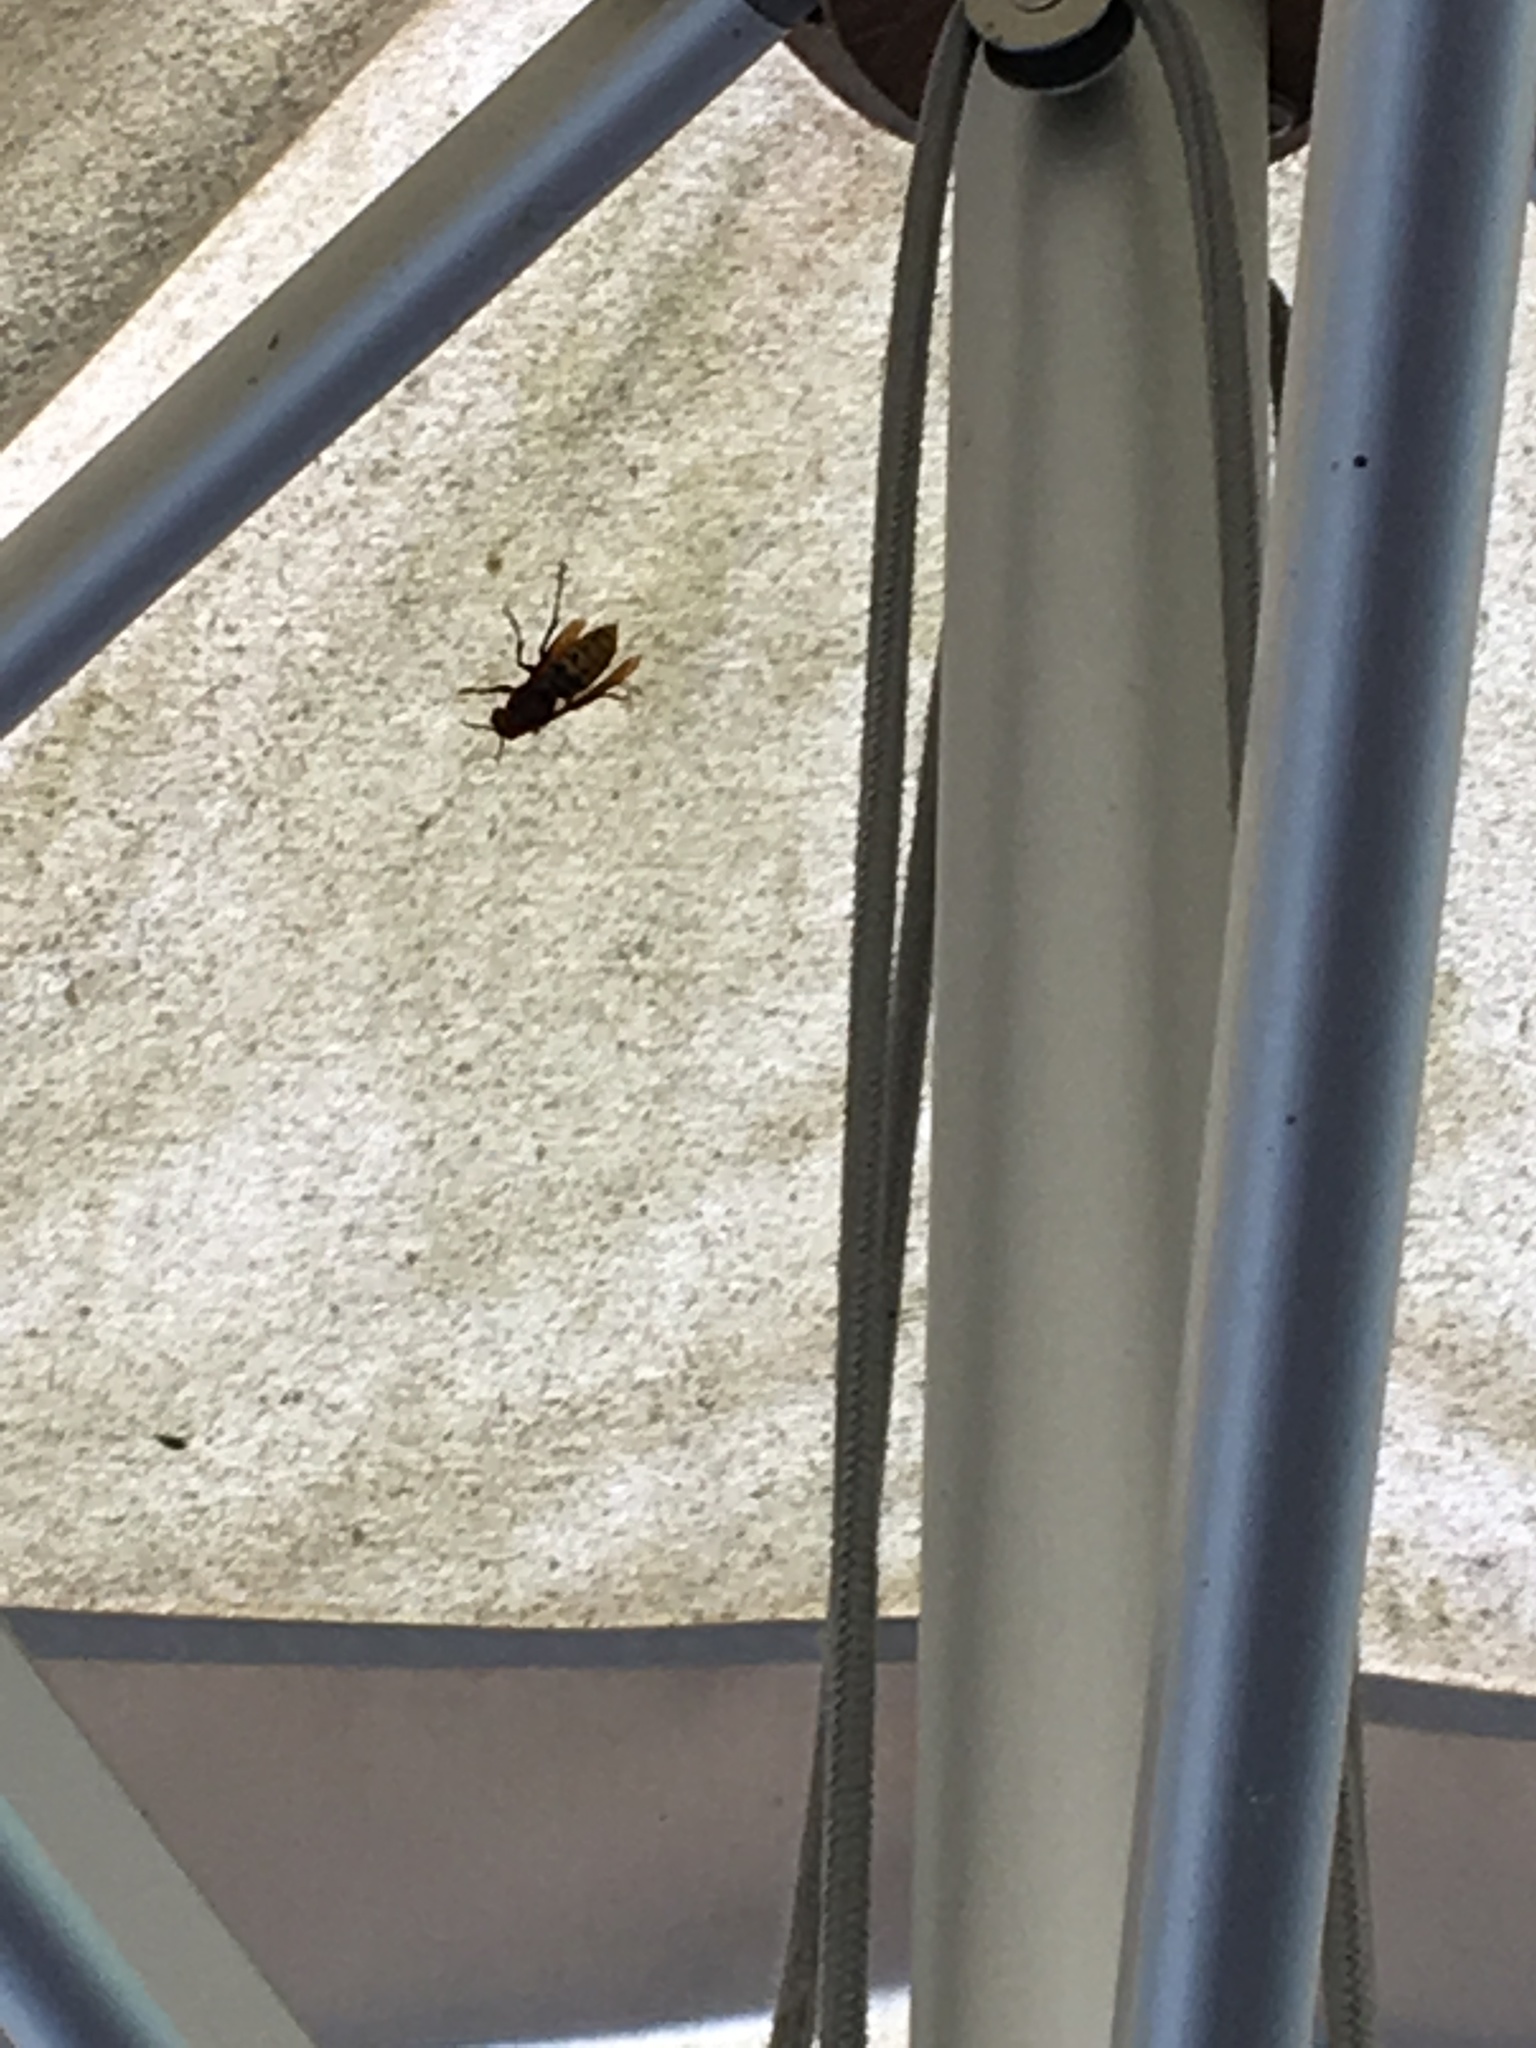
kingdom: Animalia
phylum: Arthropoda
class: Insecta
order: Hymenoptera
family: Vespidae
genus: Vespa
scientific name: Vespa crabro
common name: Hornet
